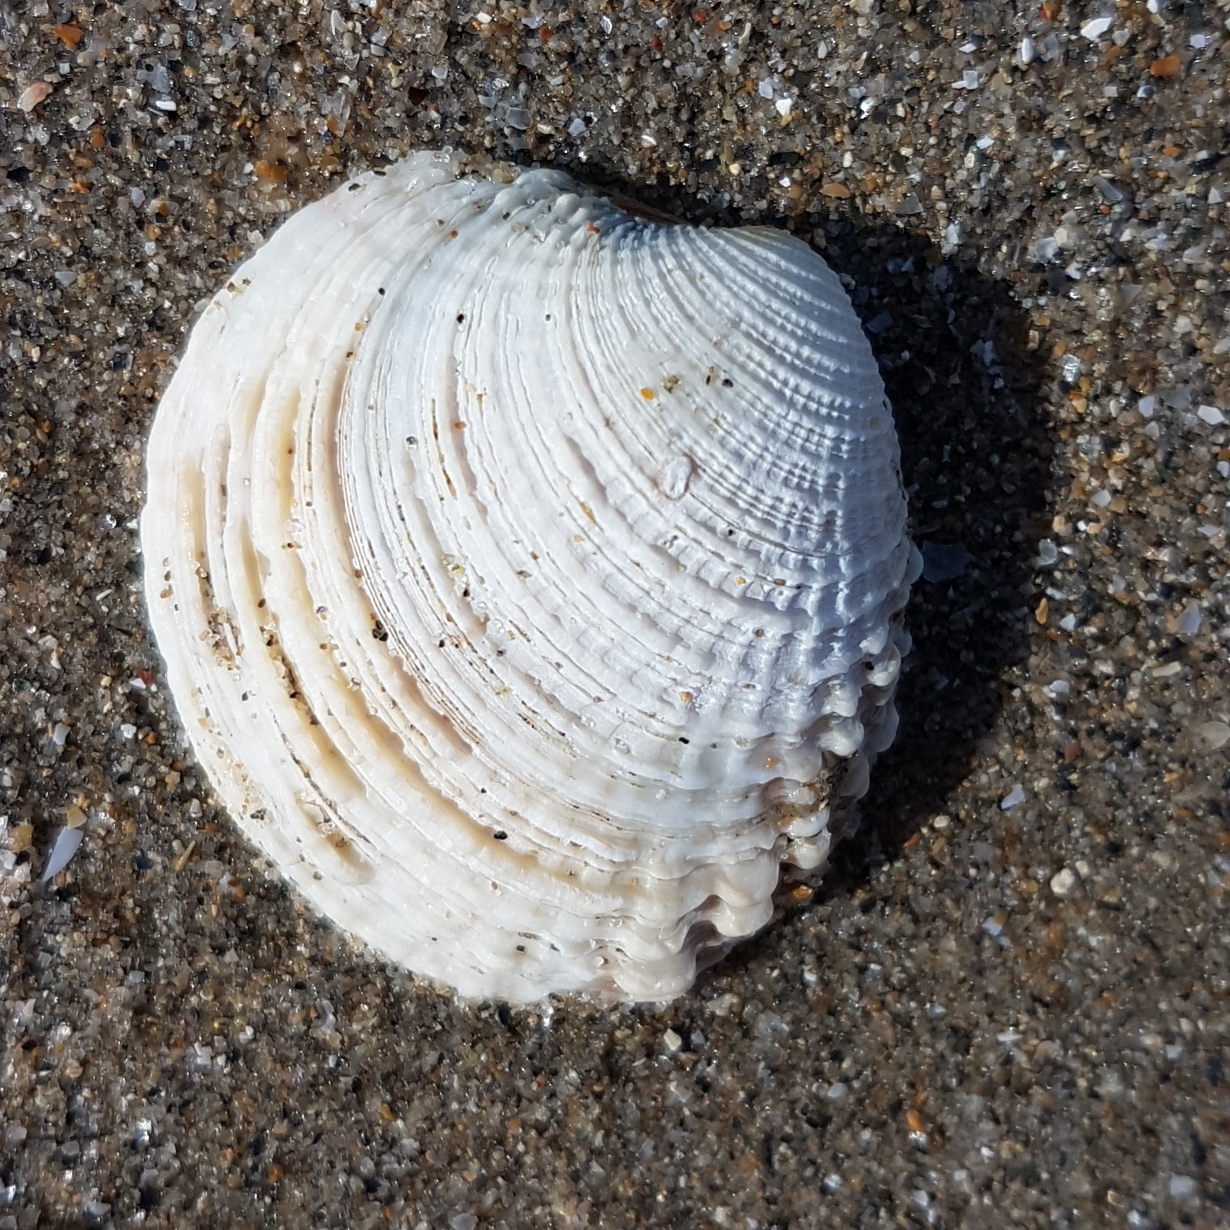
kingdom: Animalia
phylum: Mollusca
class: Bivalvia
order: Venerida
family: Veneridae
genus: Venus
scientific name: Venus verrucosa
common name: Warty venus
